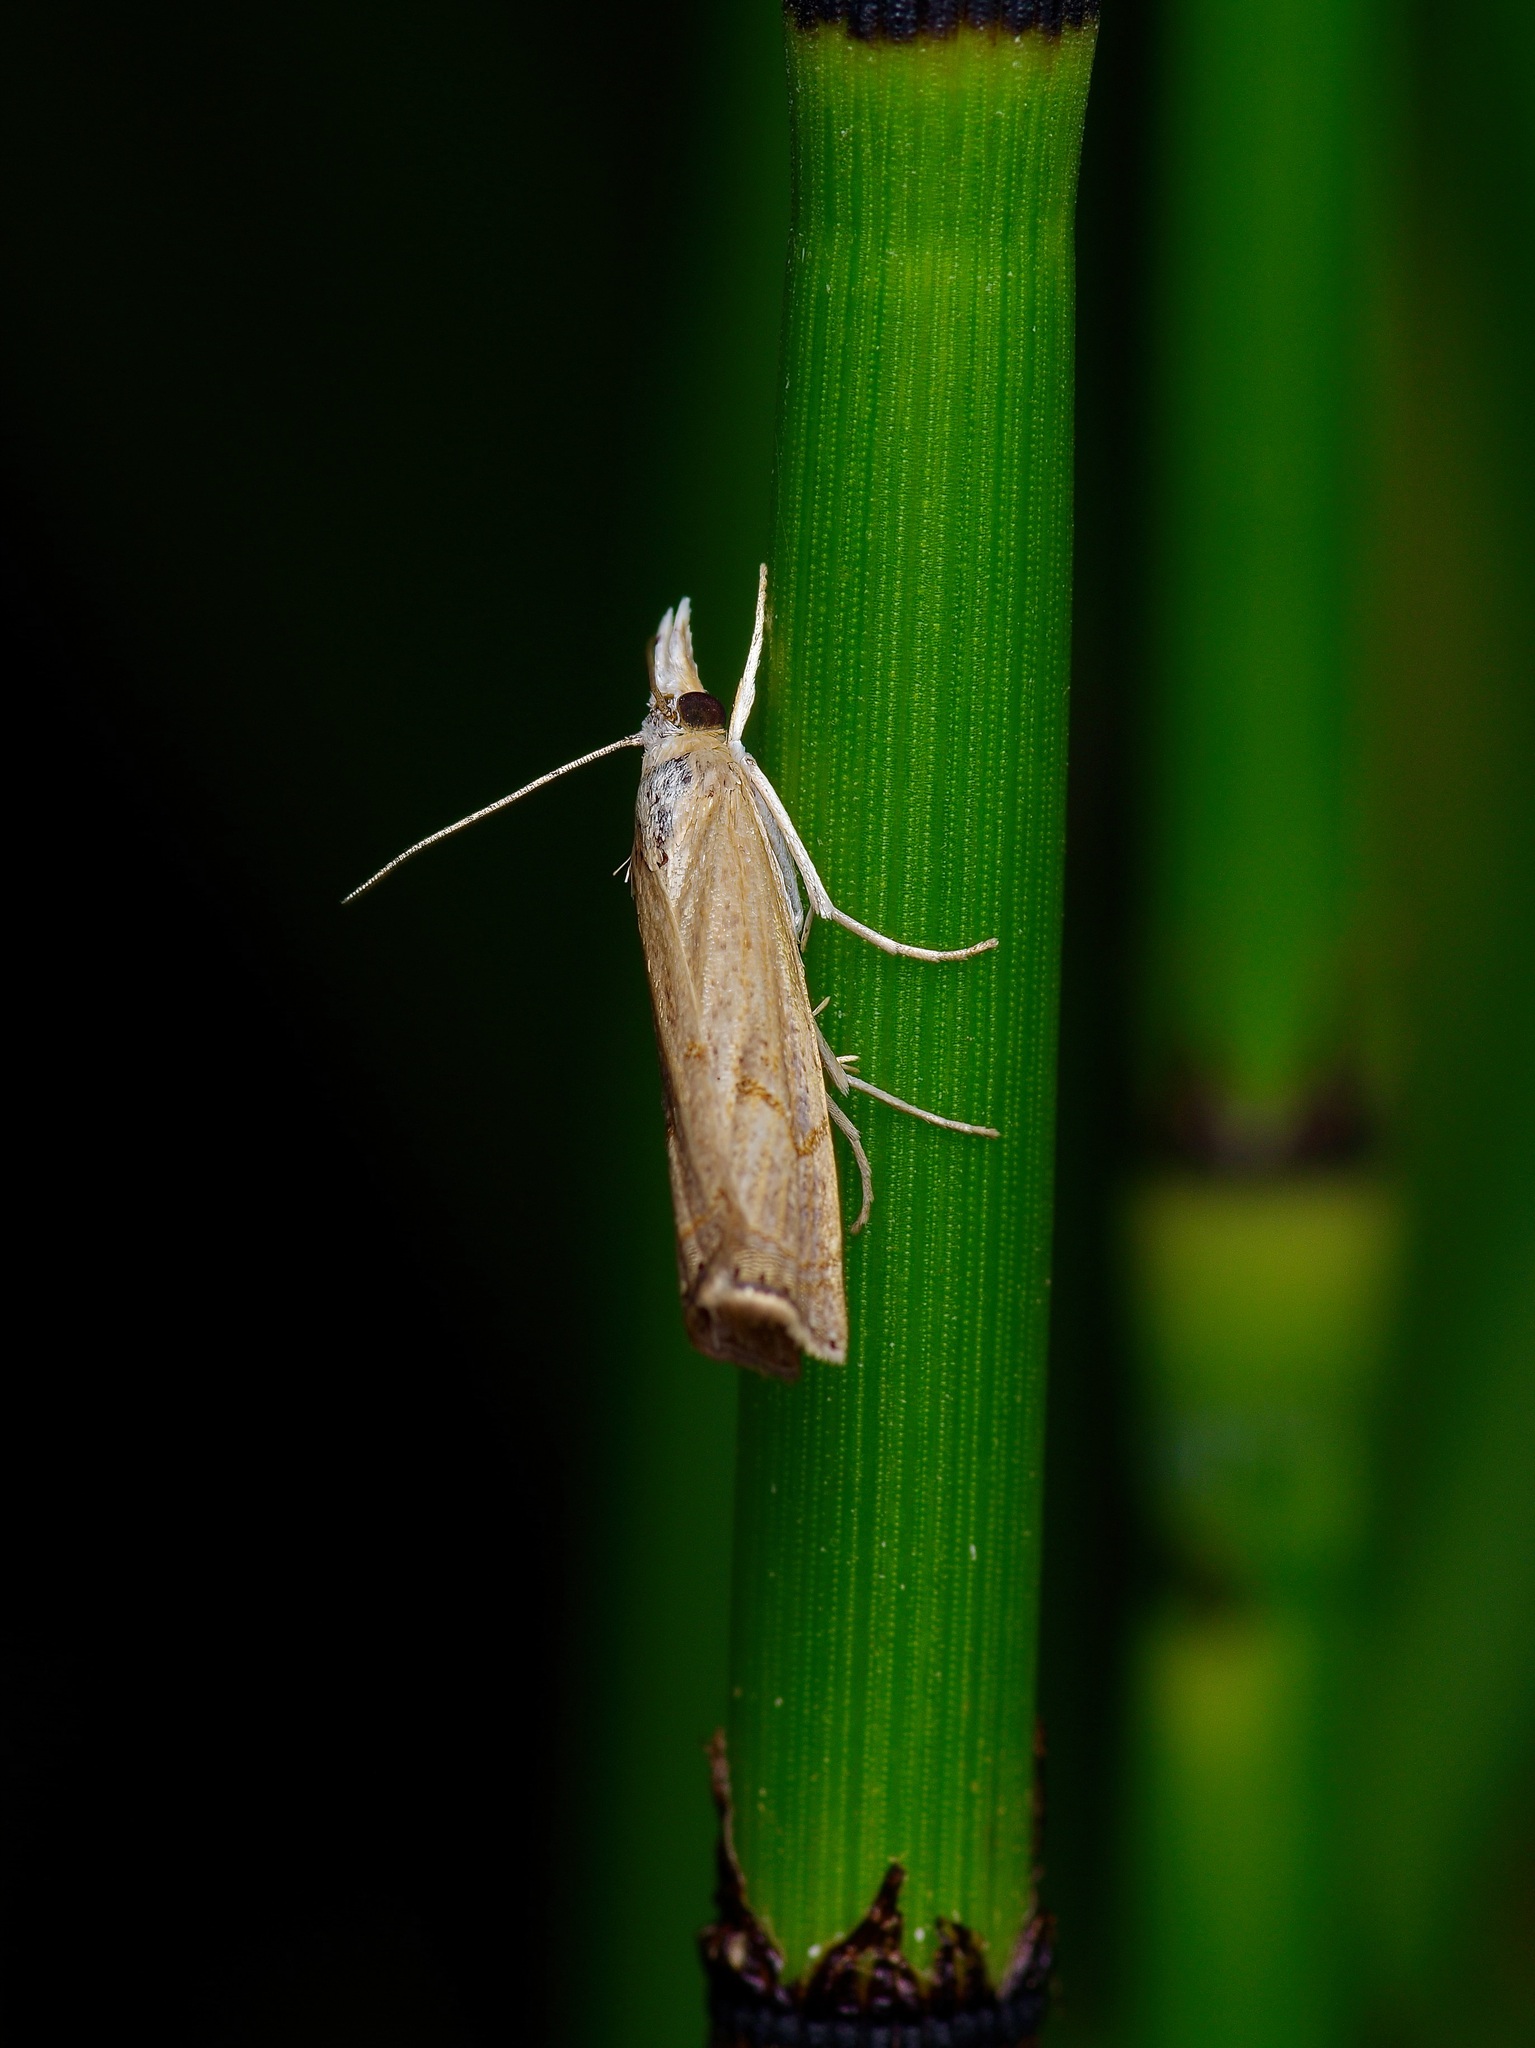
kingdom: Animalia
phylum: Arthropoda
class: Insecta
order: Lepidoptera
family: Crambidae
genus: Parapediasia
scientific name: Parapediasia teterellus
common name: Bluegrass webworm moth
